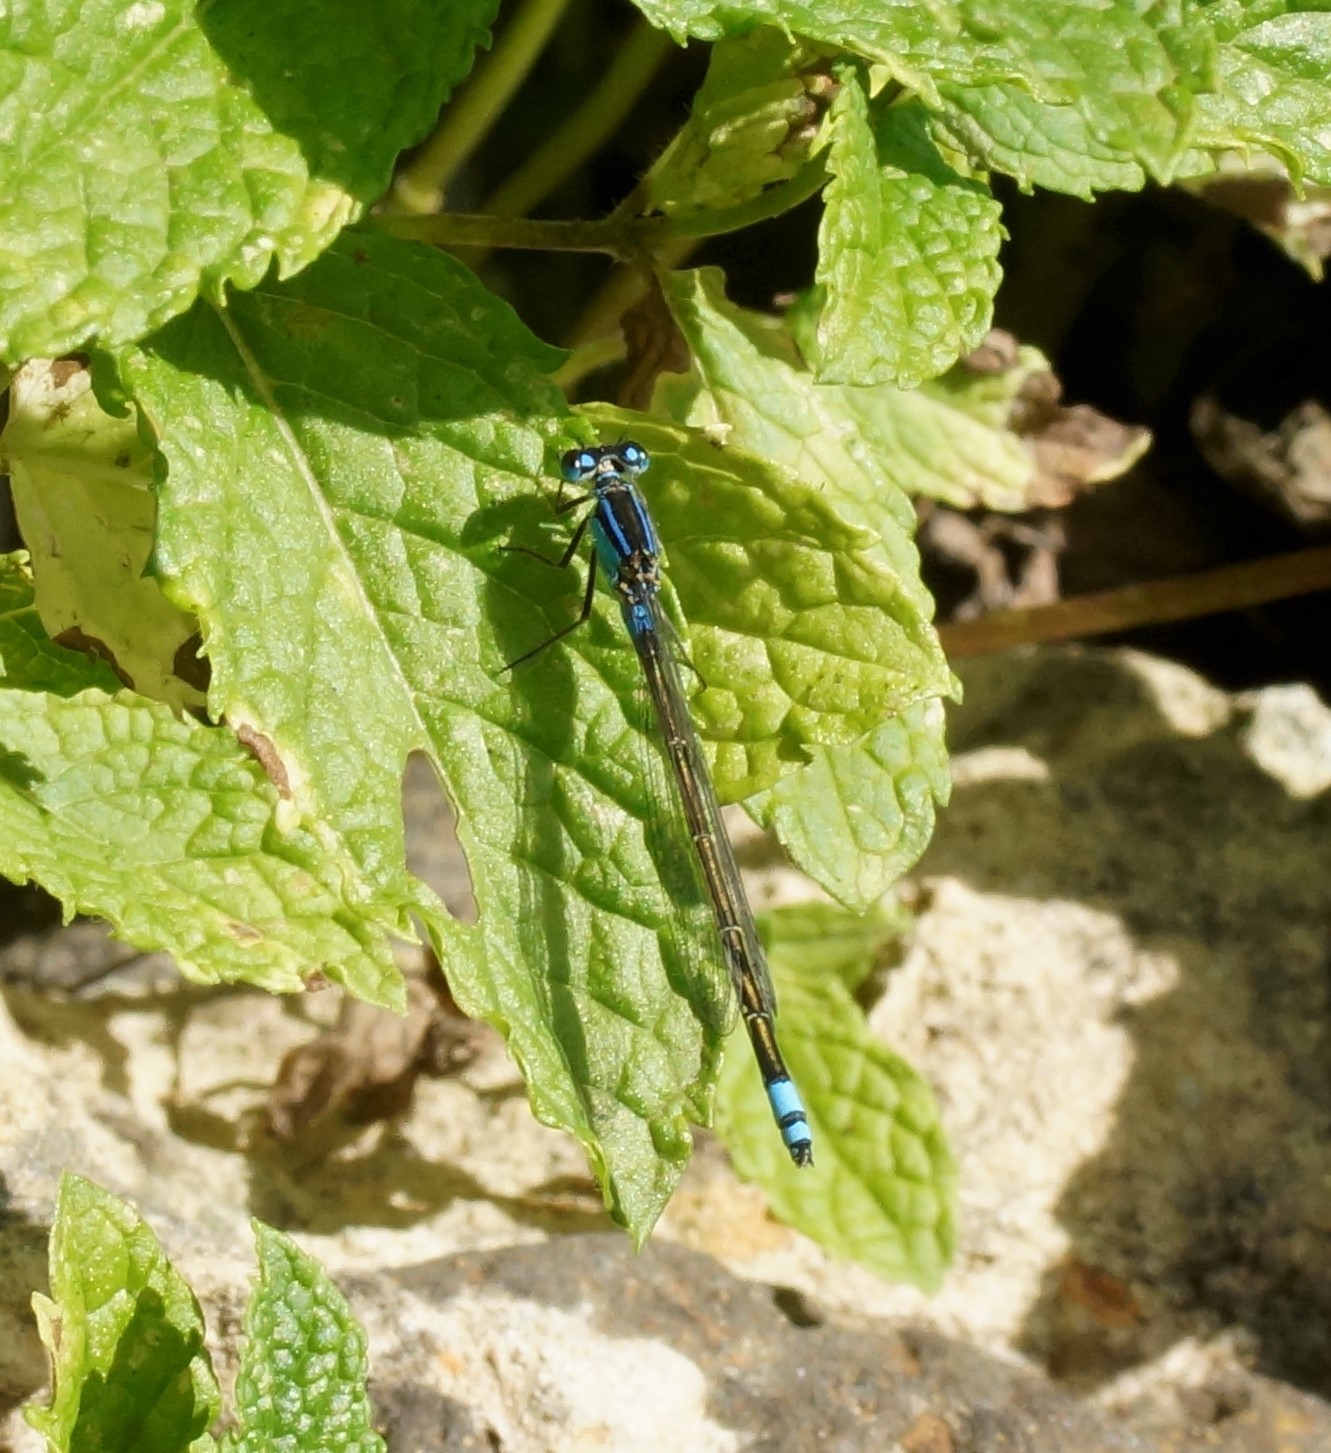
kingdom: Animalia
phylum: Arthropoda
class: Insecta
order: Odonata
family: Coenagrionidae
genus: Ischnura
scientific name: Ischnura heterosticta
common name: Common bluetail
